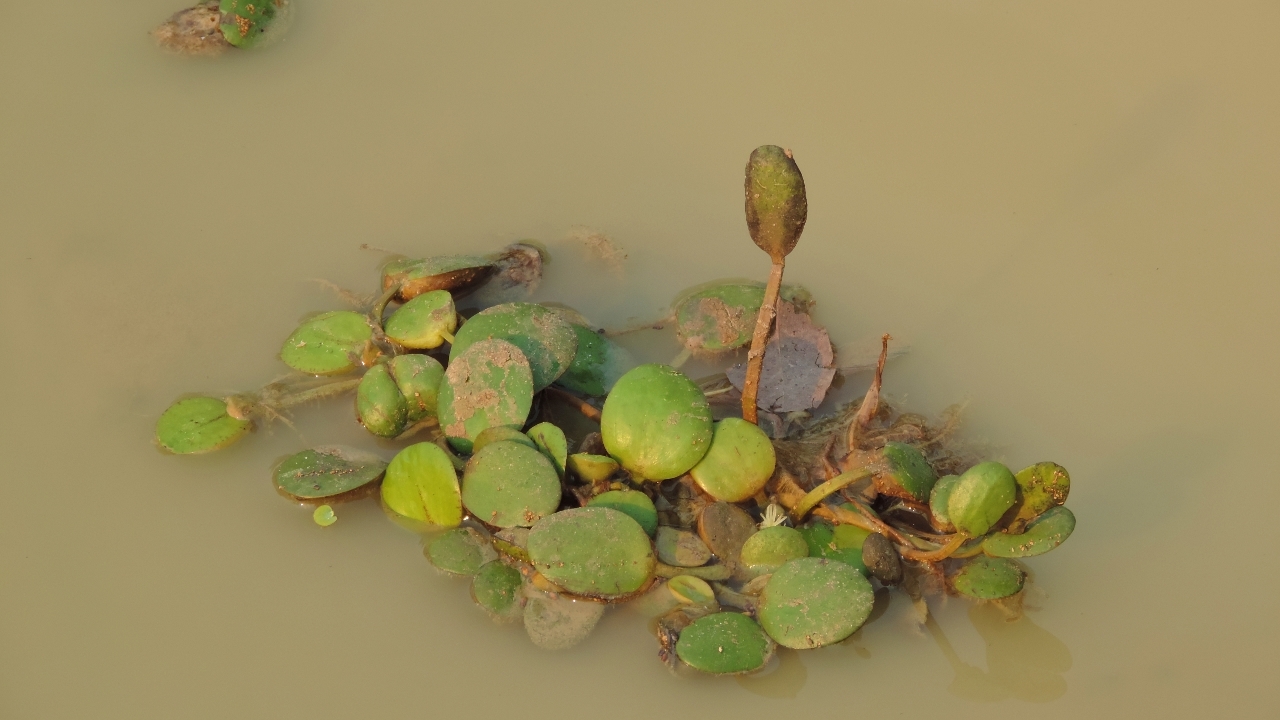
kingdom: Plantae
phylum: Tracheophyta
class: Liliopsida
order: Alismatales
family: Hydrocharitaceae
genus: Hydrocharis
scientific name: Hydrocharis laevigata
